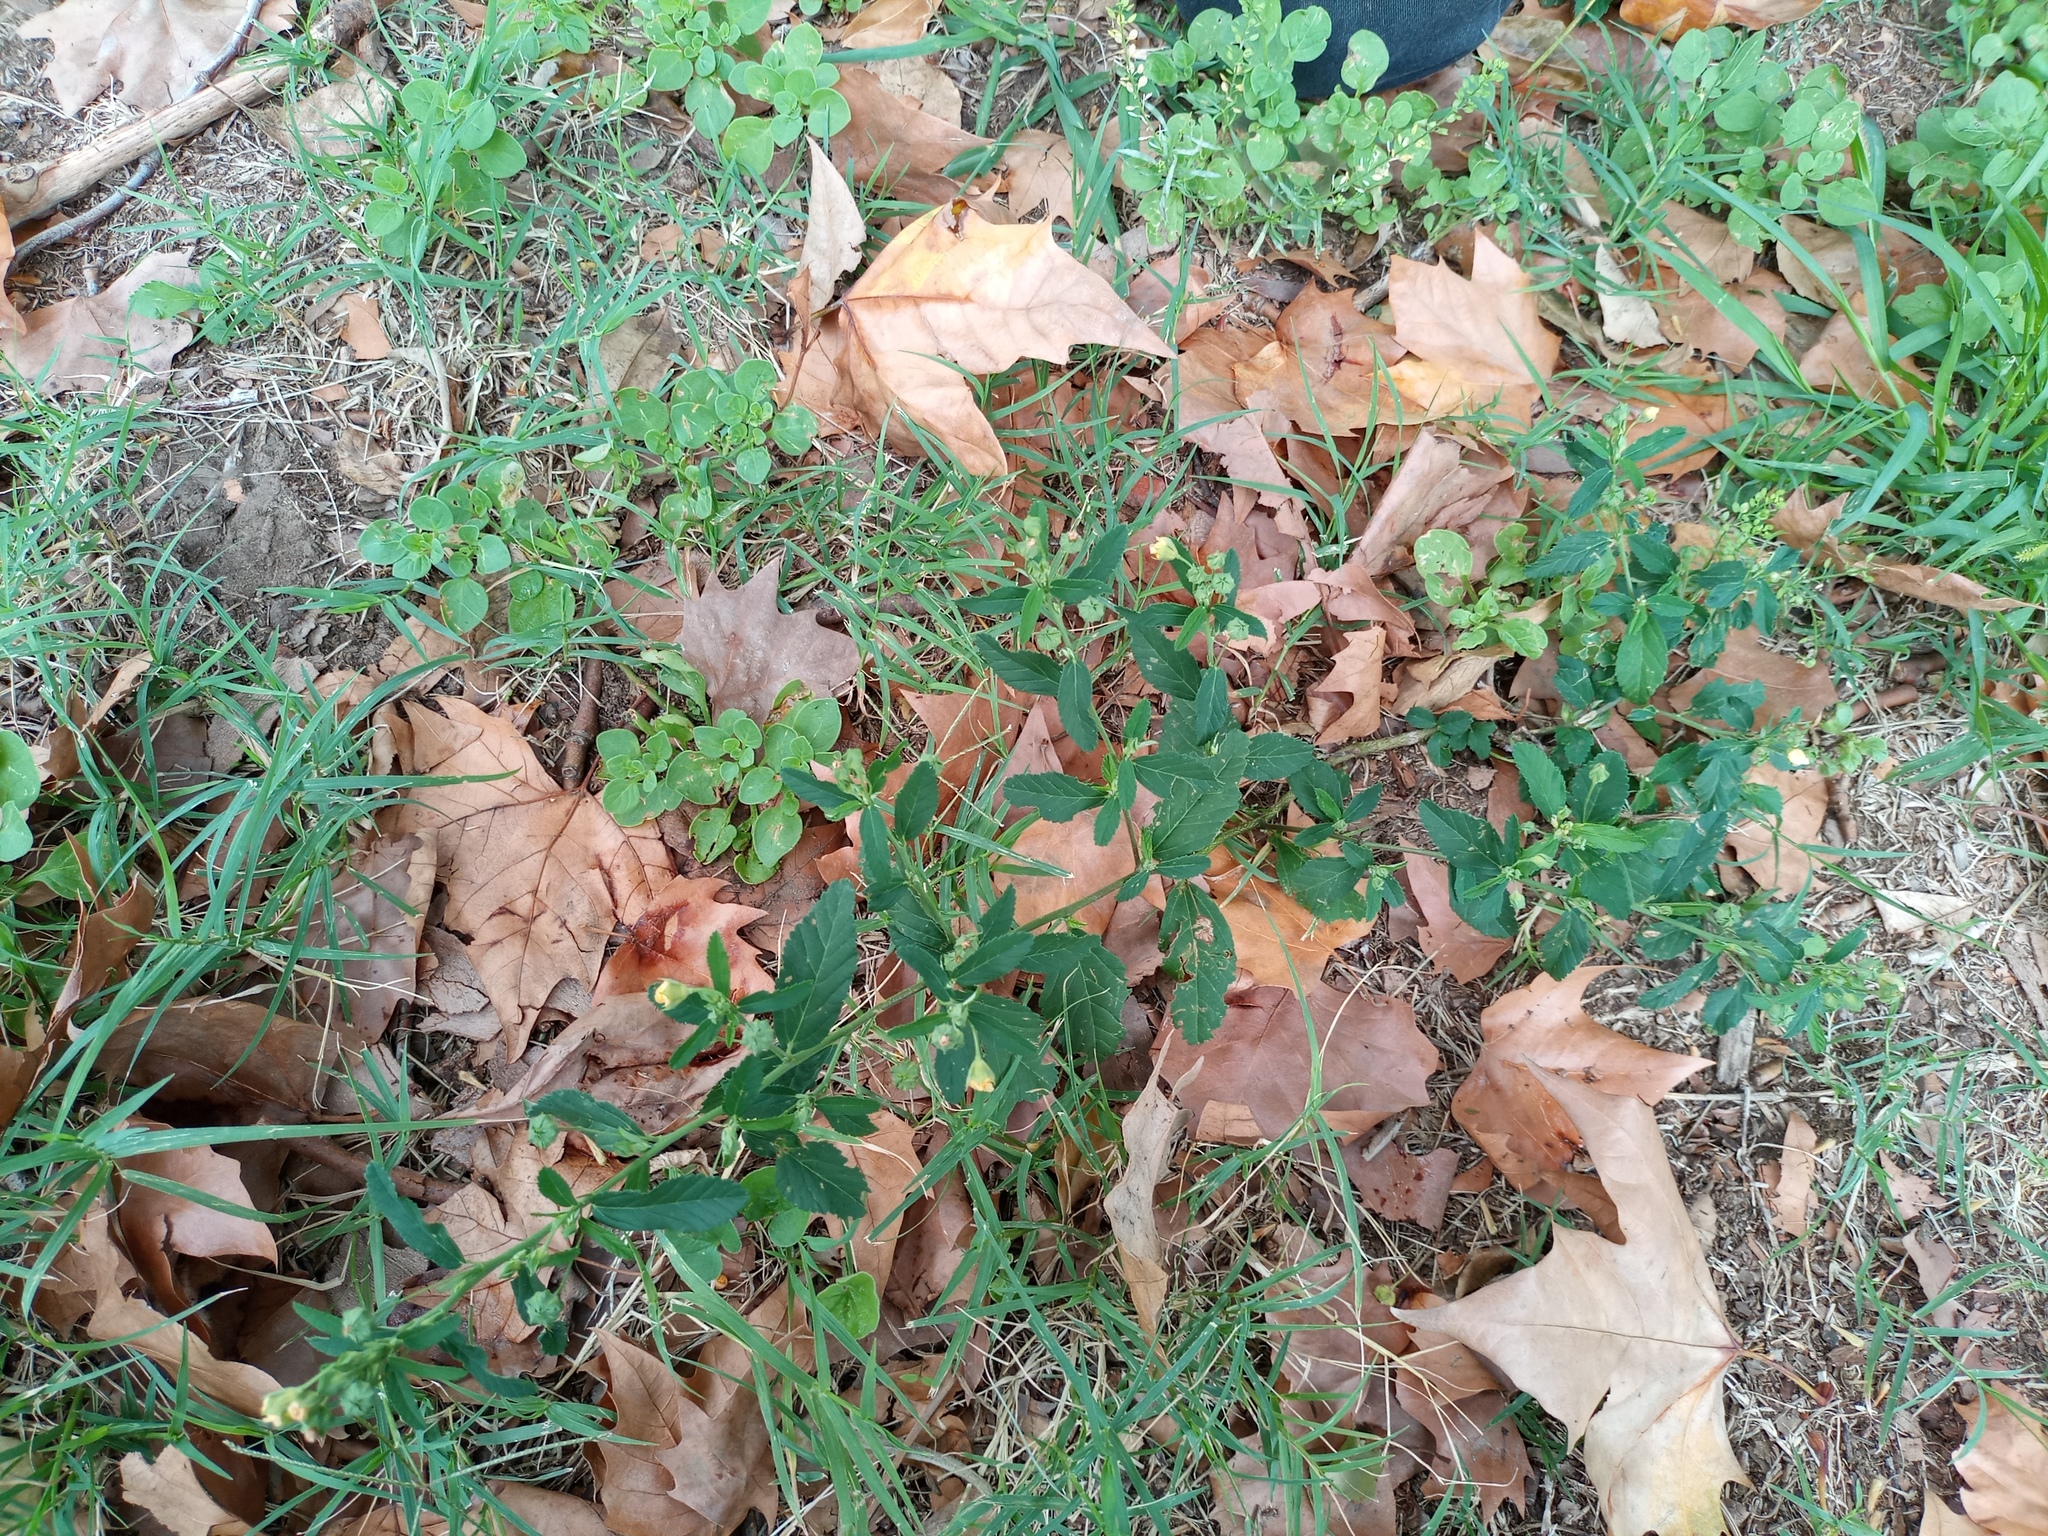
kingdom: Plantae
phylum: Tracheophyta
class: Magnoliopsida
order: Malvales
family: Malvaceae
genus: Sida
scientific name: Sida rhombifolia
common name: Queensland-hemp
